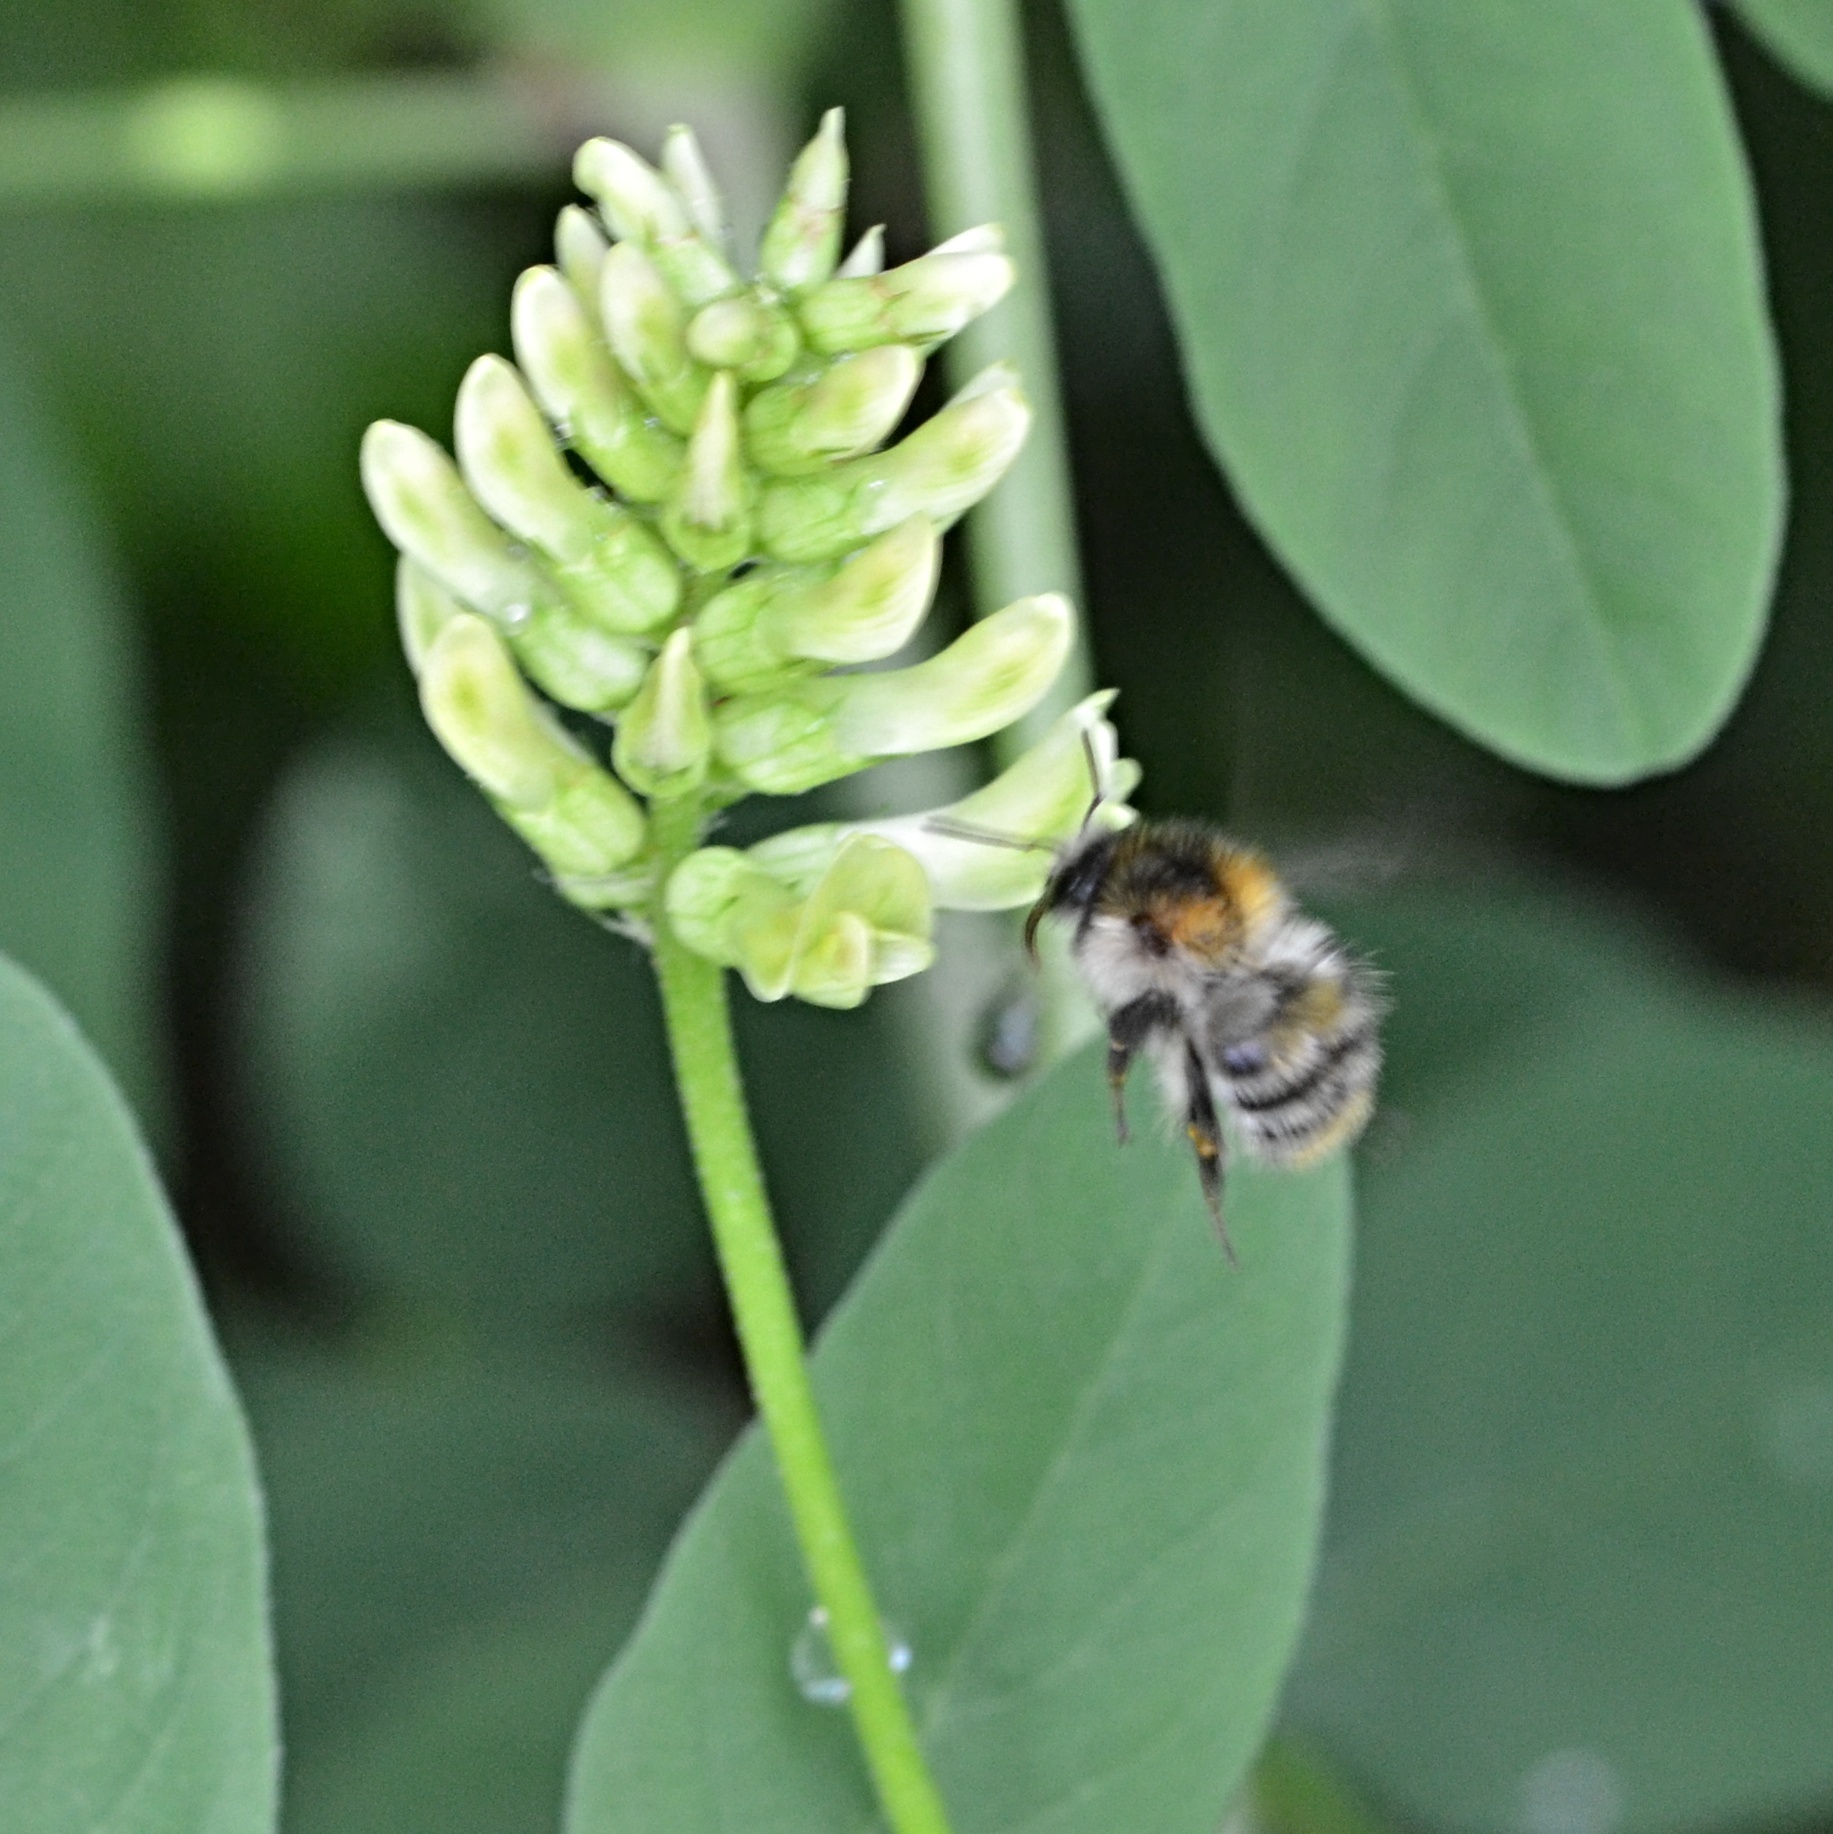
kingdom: Animalia
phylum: Arthropoda
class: Insecta
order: Hymenoptera
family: Apidae
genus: Bombus
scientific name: Bombus pascuorum
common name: Common carder bee
